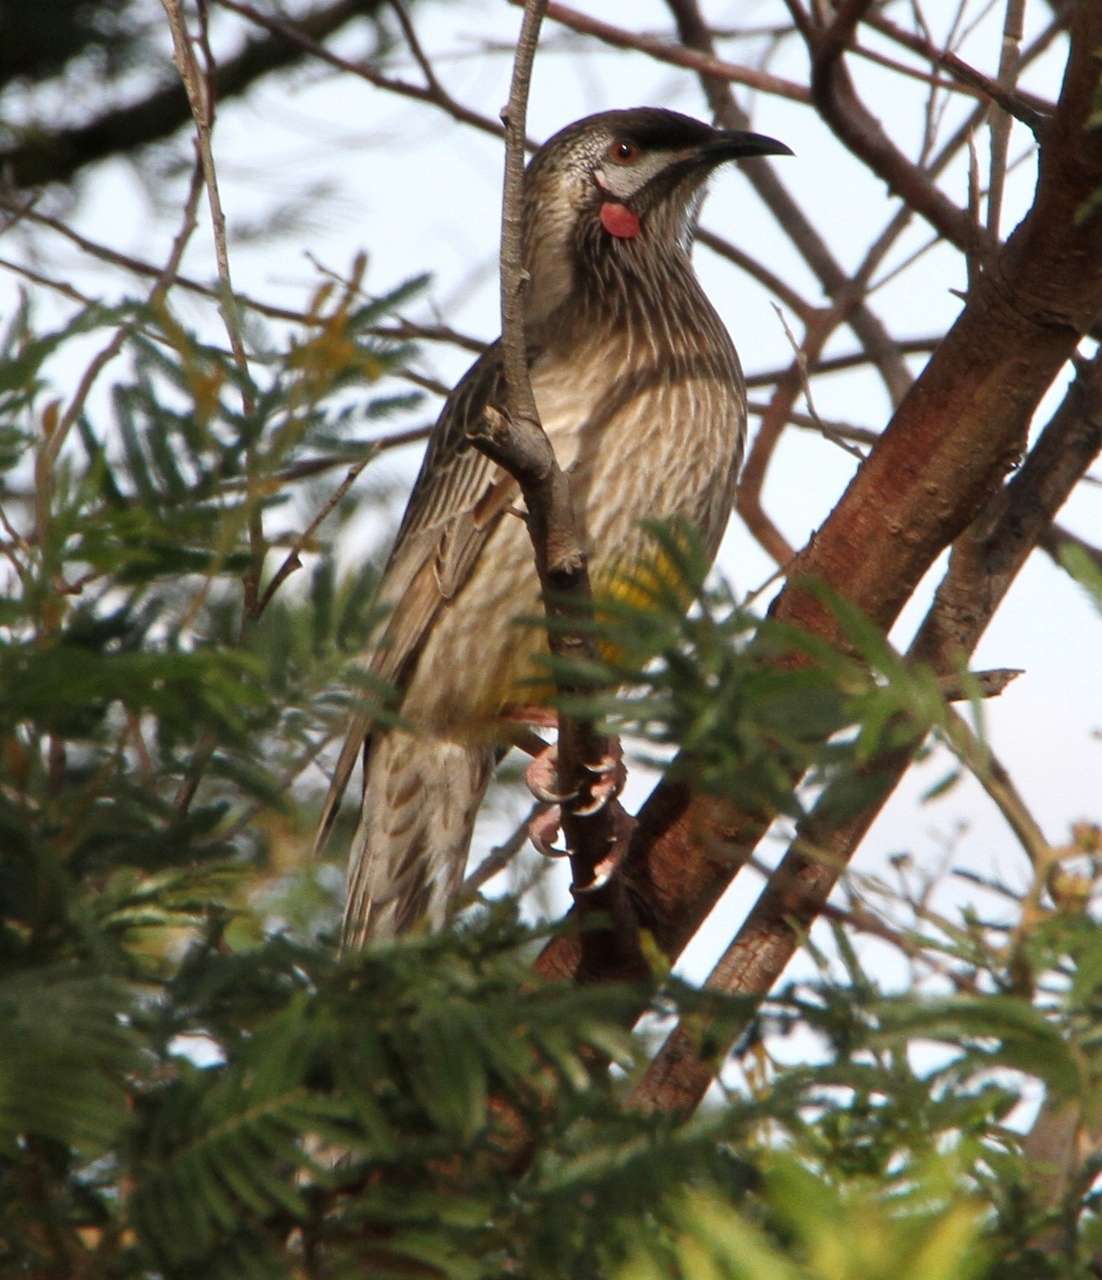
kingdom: Animalia
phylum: Chordata
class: Aves
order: Passeriformes
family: Meliphagidae
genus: Anthochaera
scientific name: Anthochaera carunculata
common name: Red wattlebird
